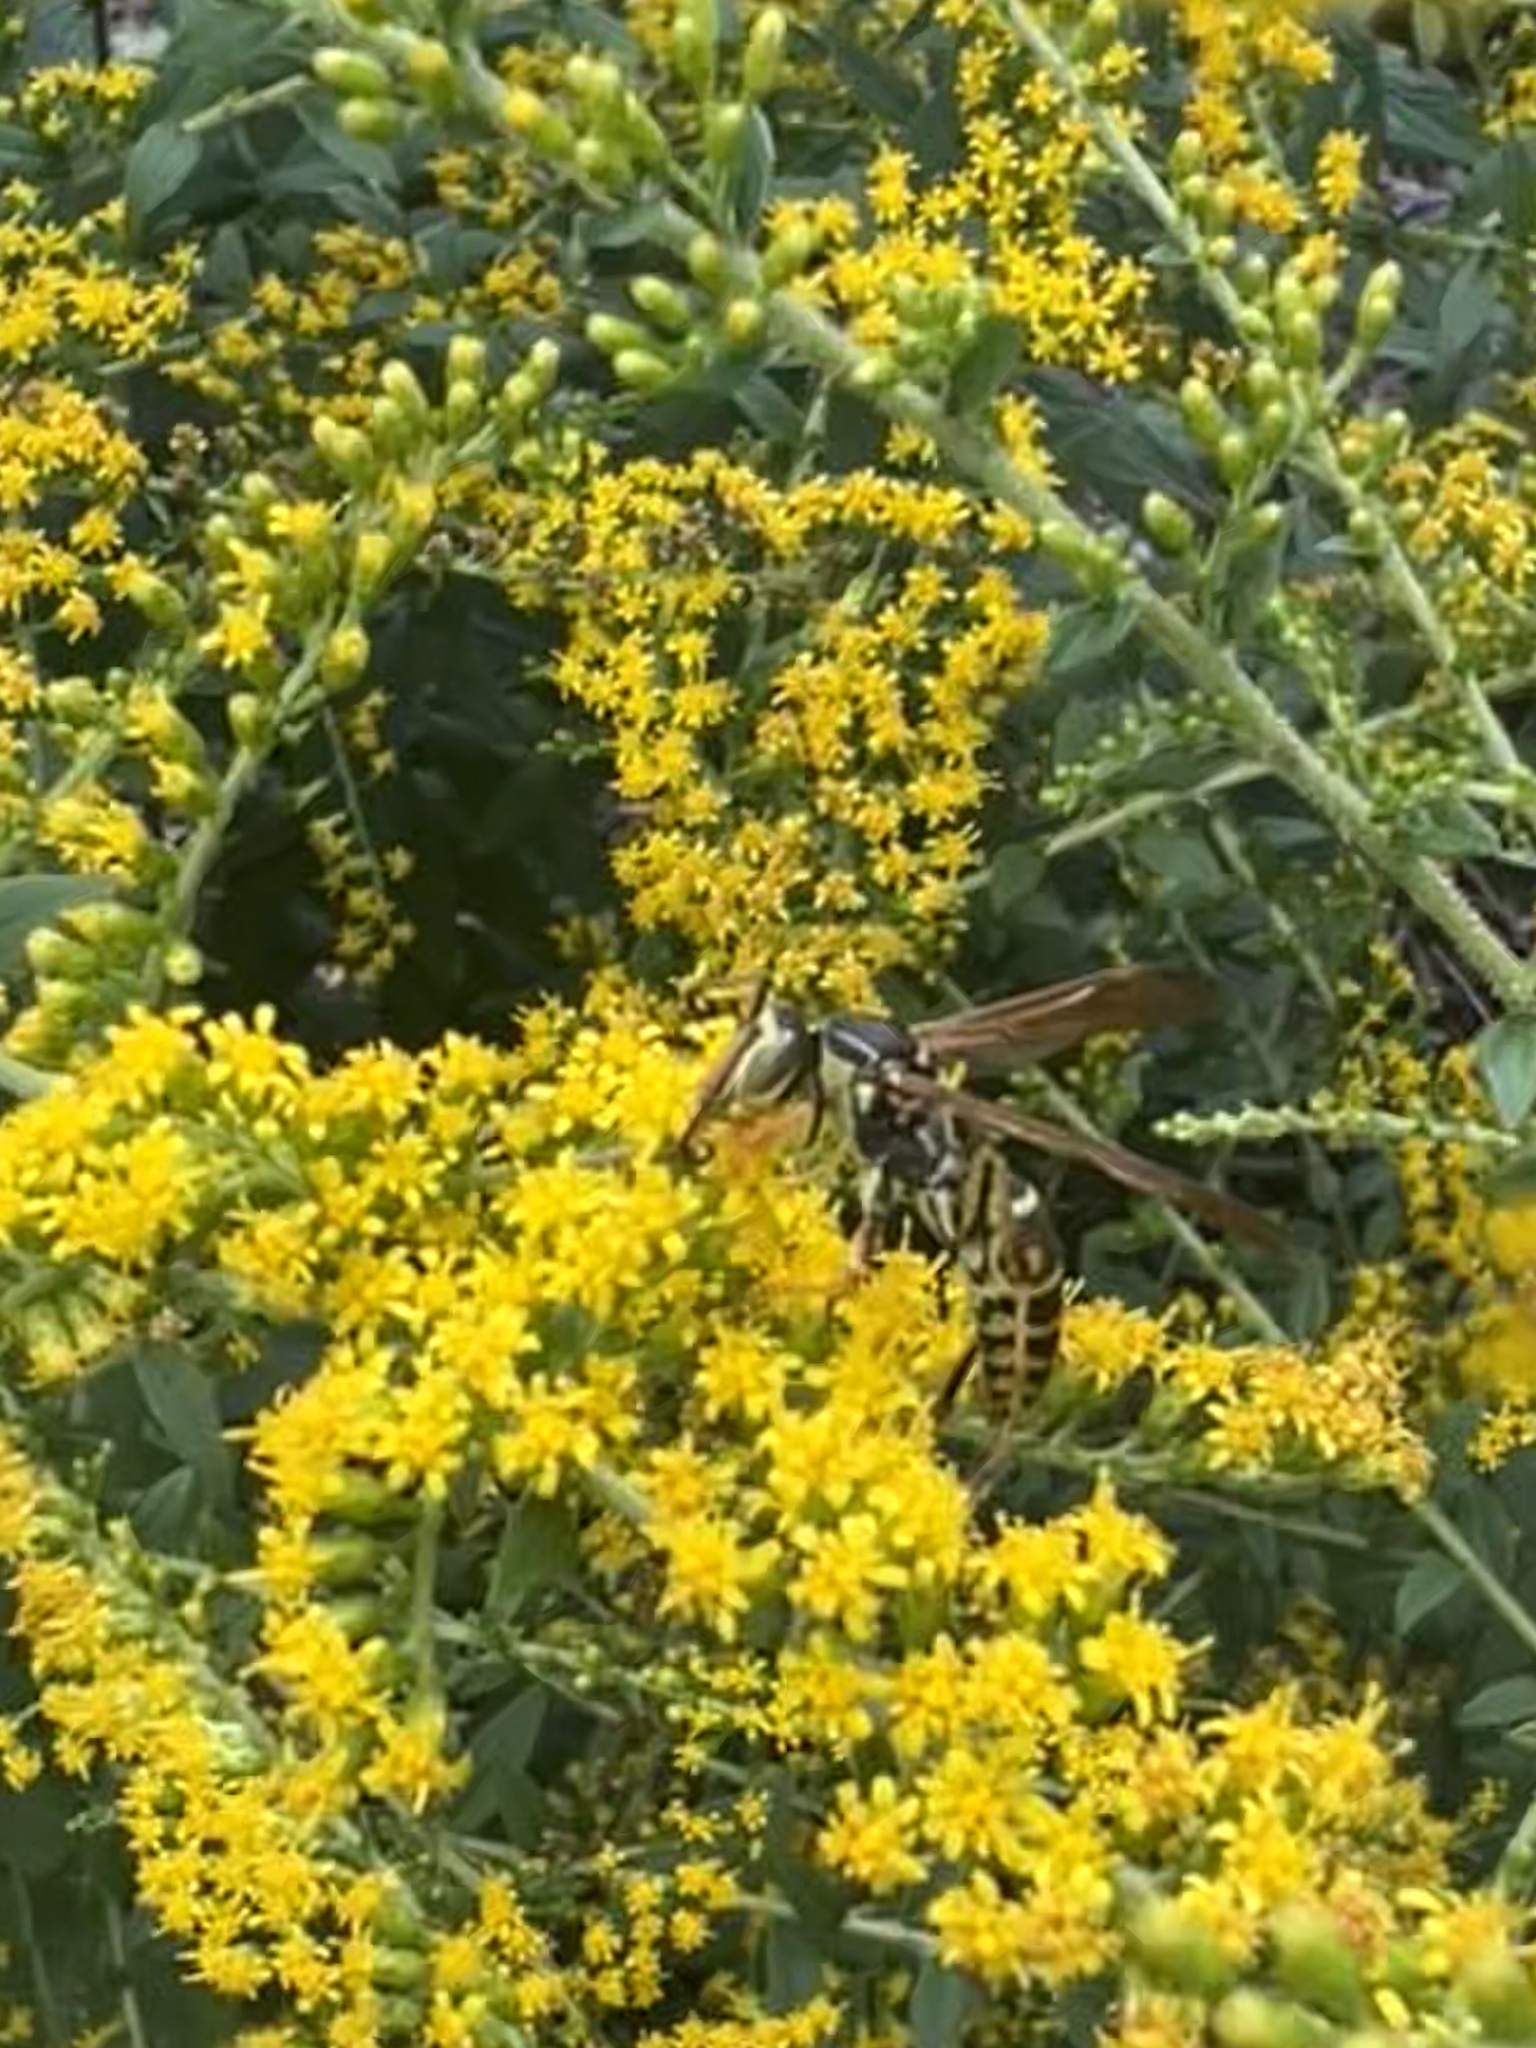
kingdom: Animalia
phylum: Arthropoda
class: Insecta
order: Hymenoptera
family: Eumenidae
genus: Polistes
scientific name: Polistes fuscatus
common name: Dark paper wasp
